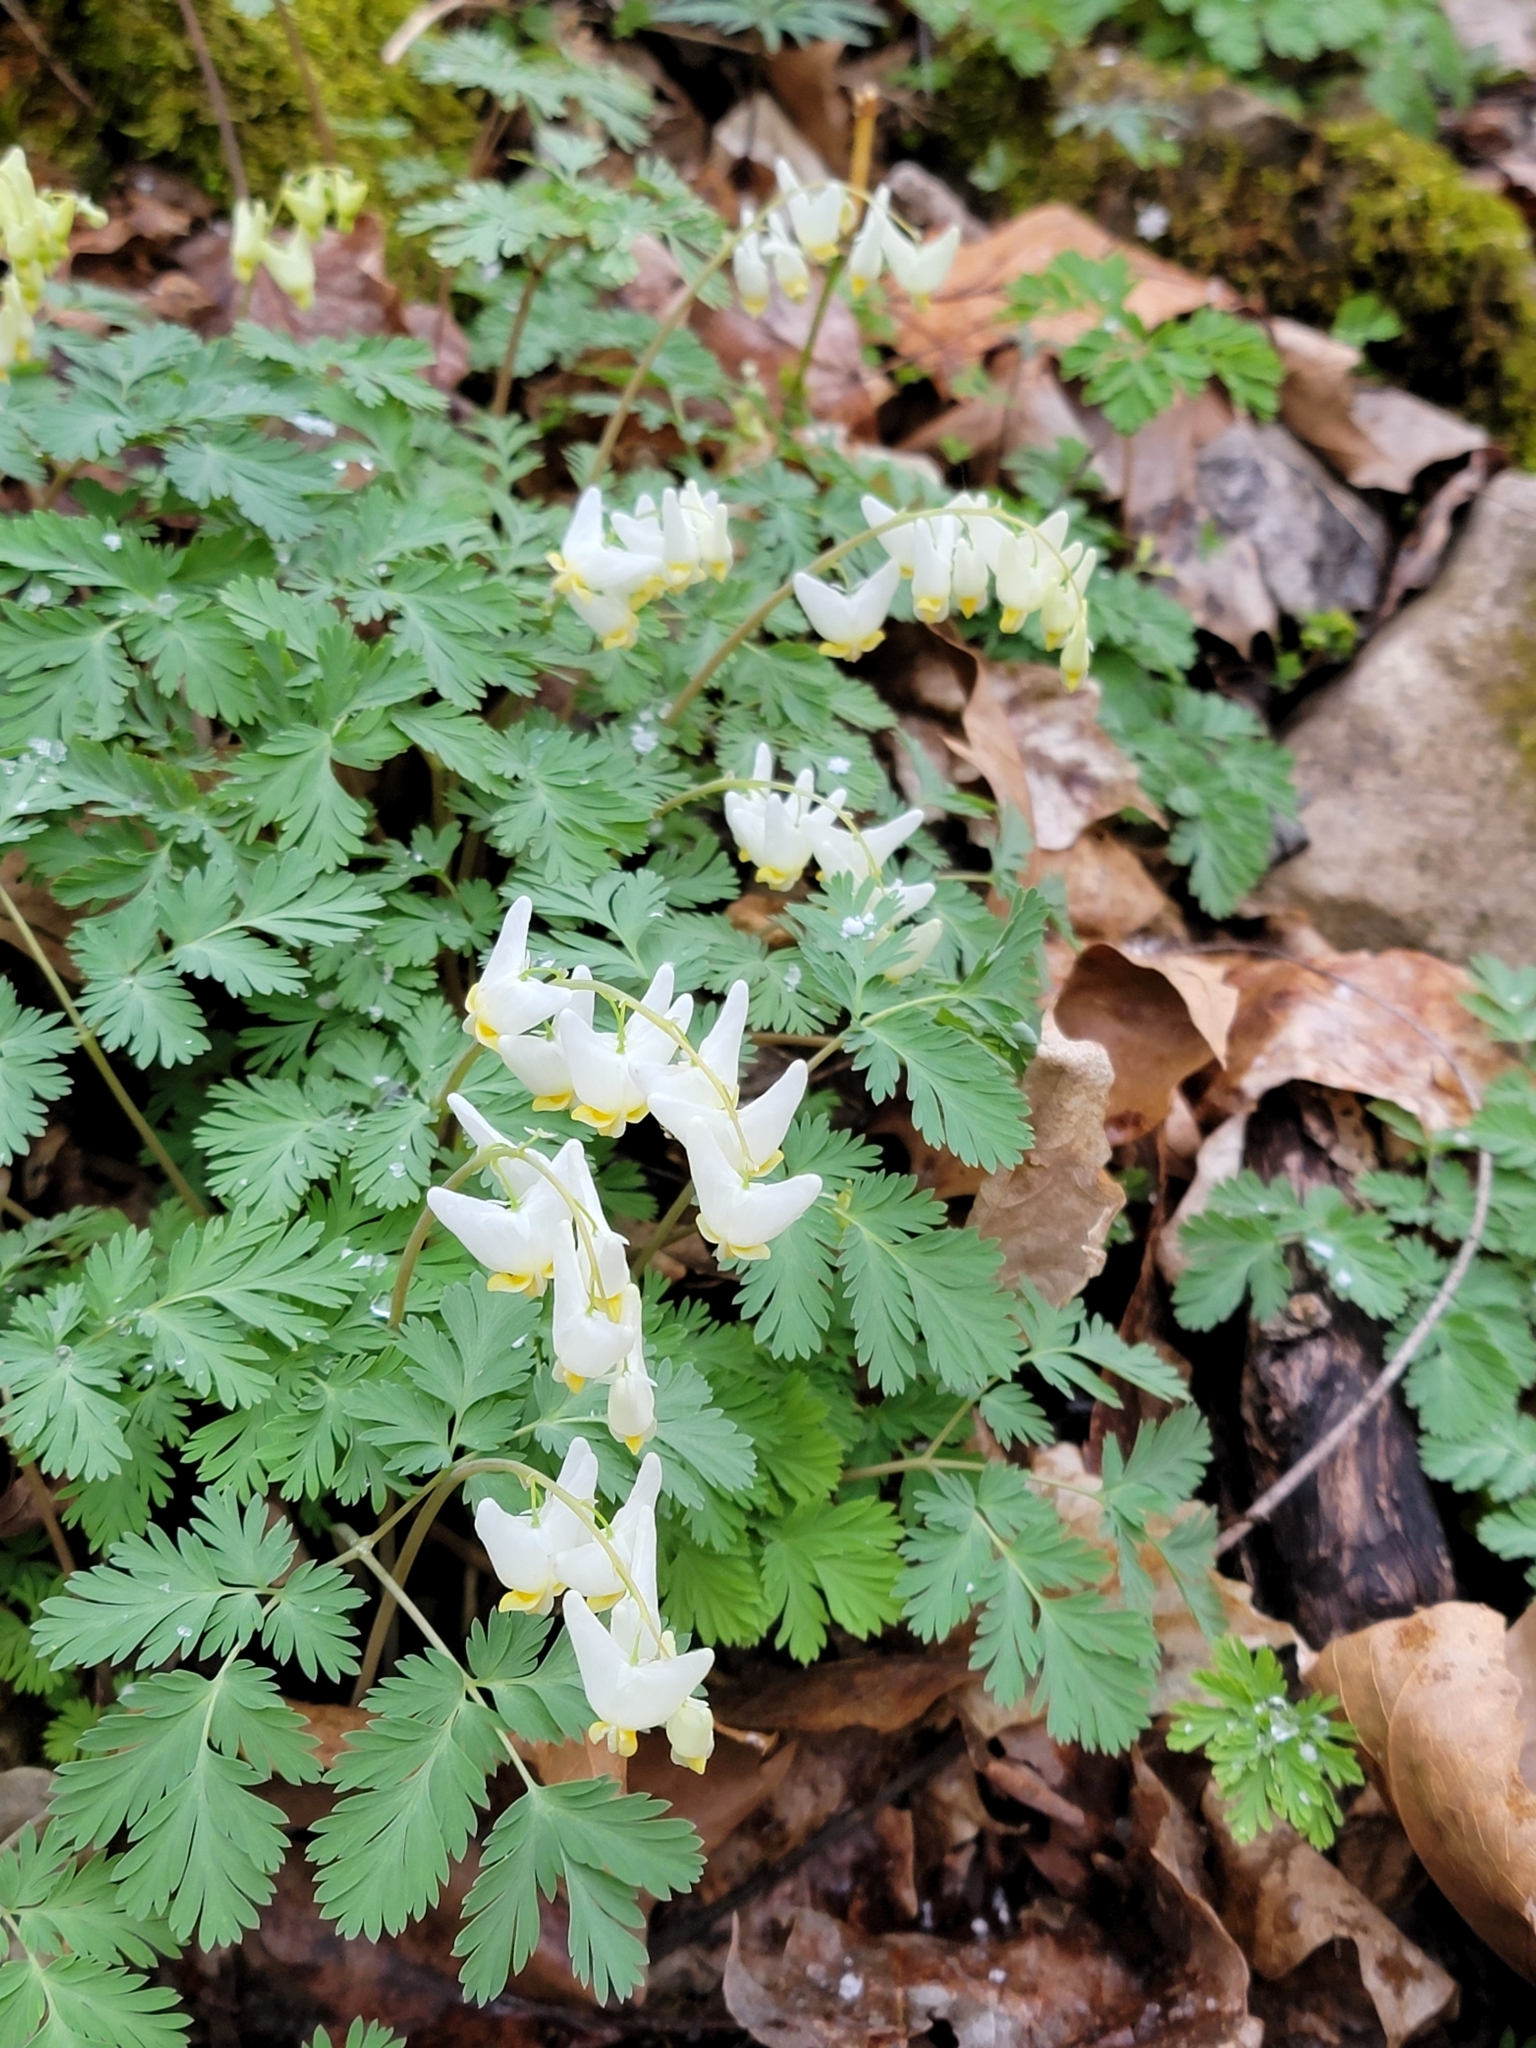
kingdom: Plantae
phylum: Tracheophyta
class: Magnoliopsida
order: Ranunculales
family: Papaveraceae
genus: Dicentra
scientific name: Dicentra cucullaria
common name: Dutchman's breeches
